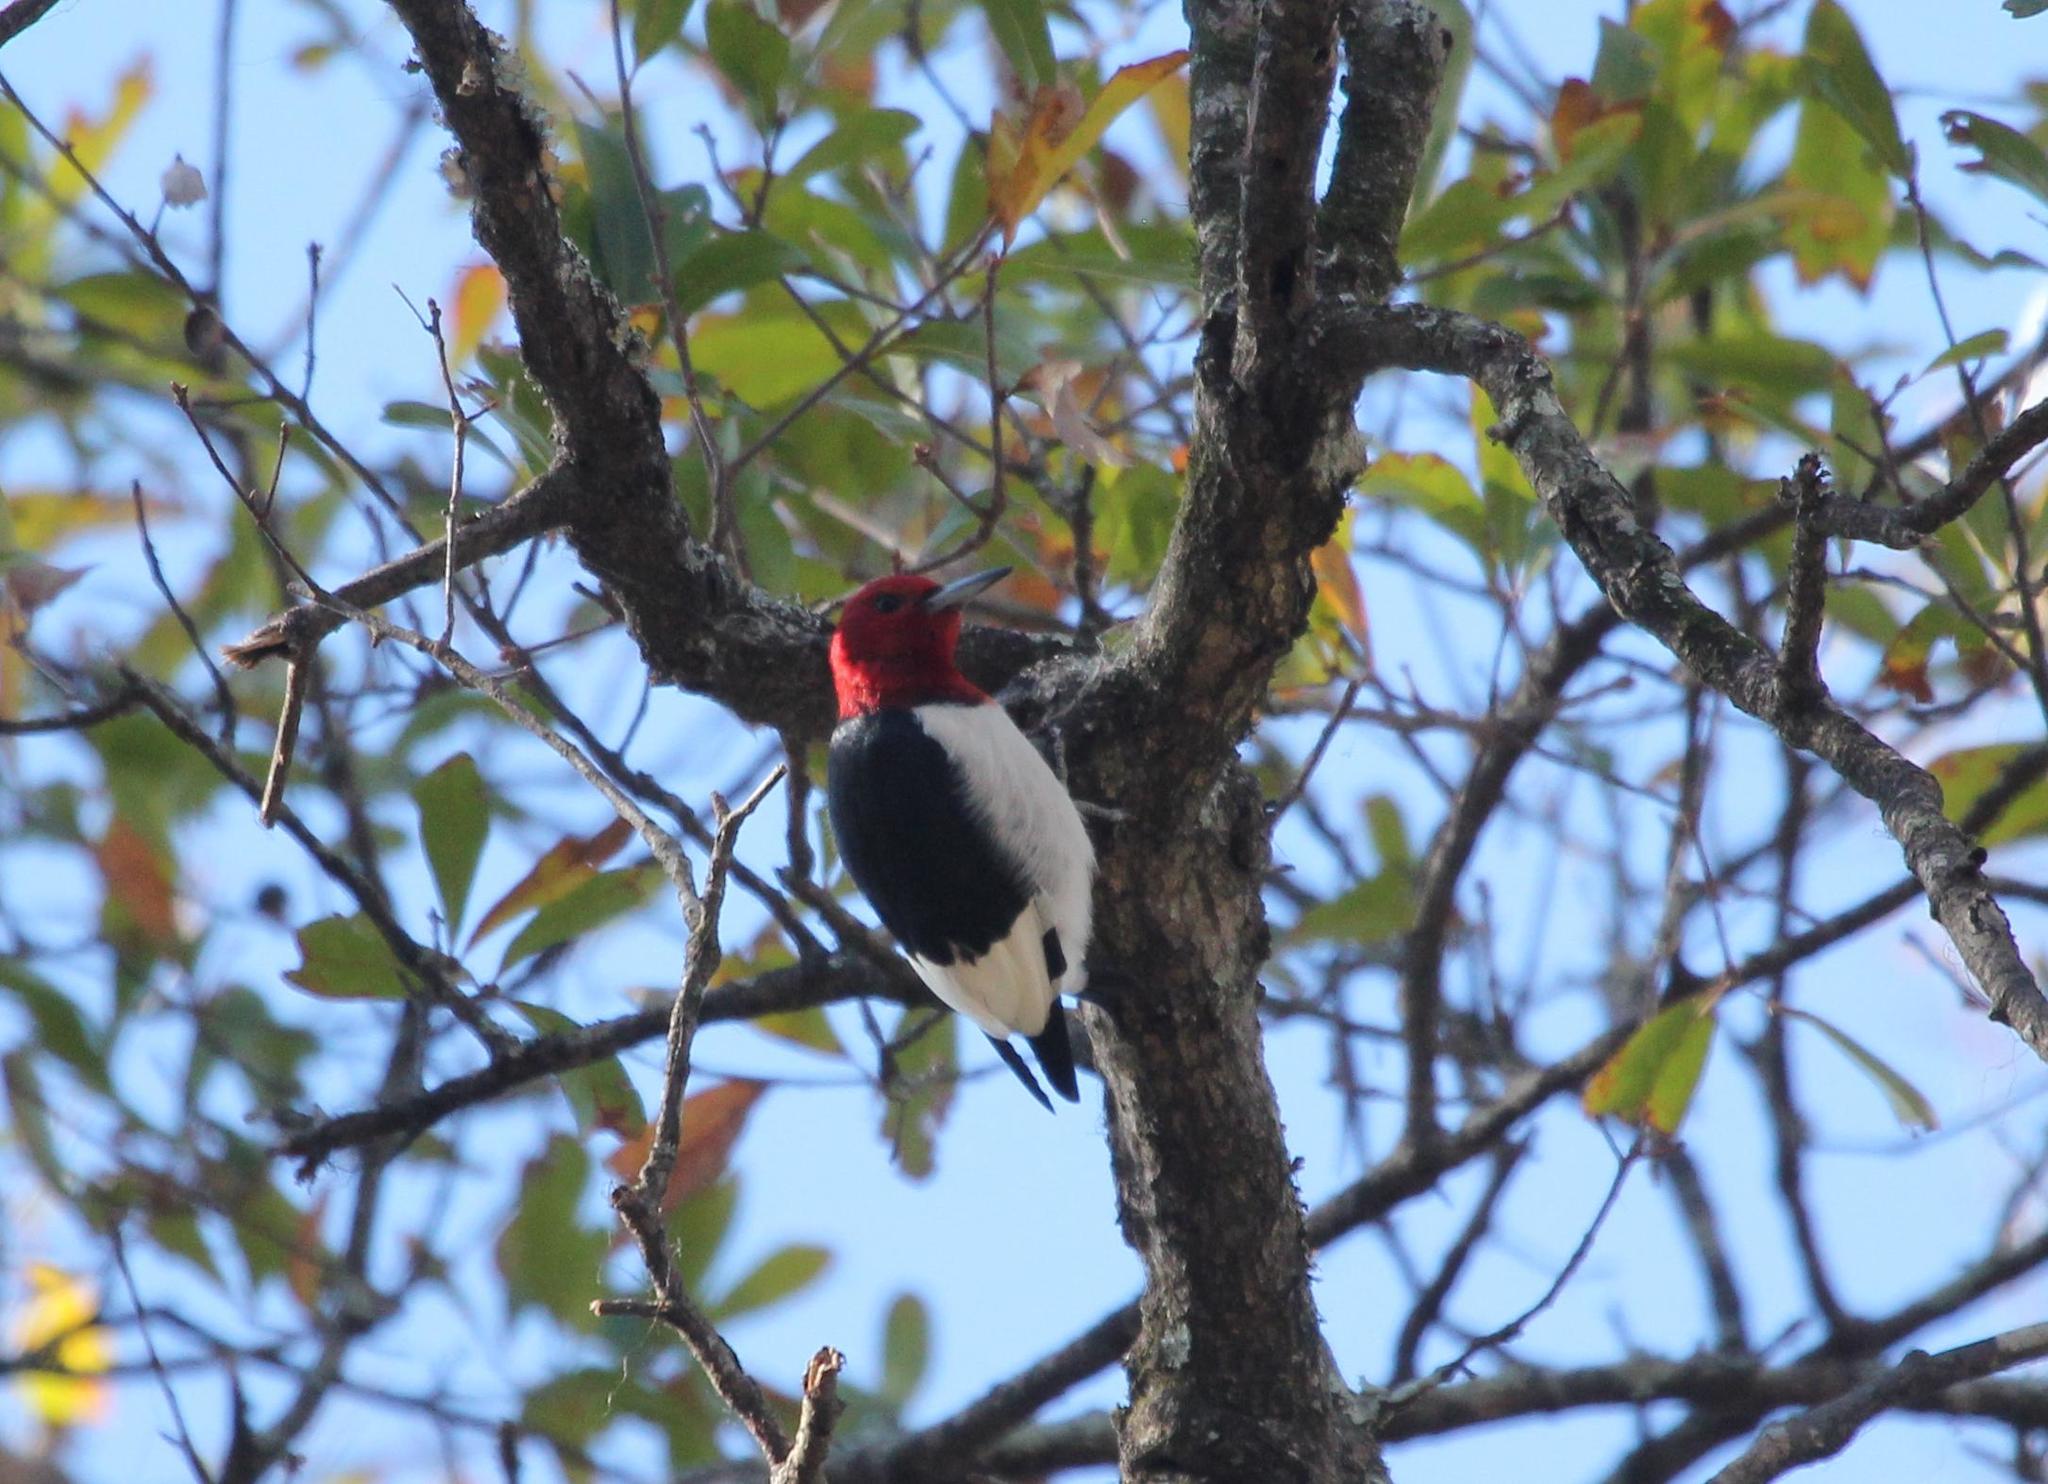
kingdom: Animalia
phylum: Chordata
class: Aves
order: Piciformes
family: Picidae
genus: Melanerpes
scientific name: Melanerpes erythrocephalus
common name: Red-headed woodpecker
